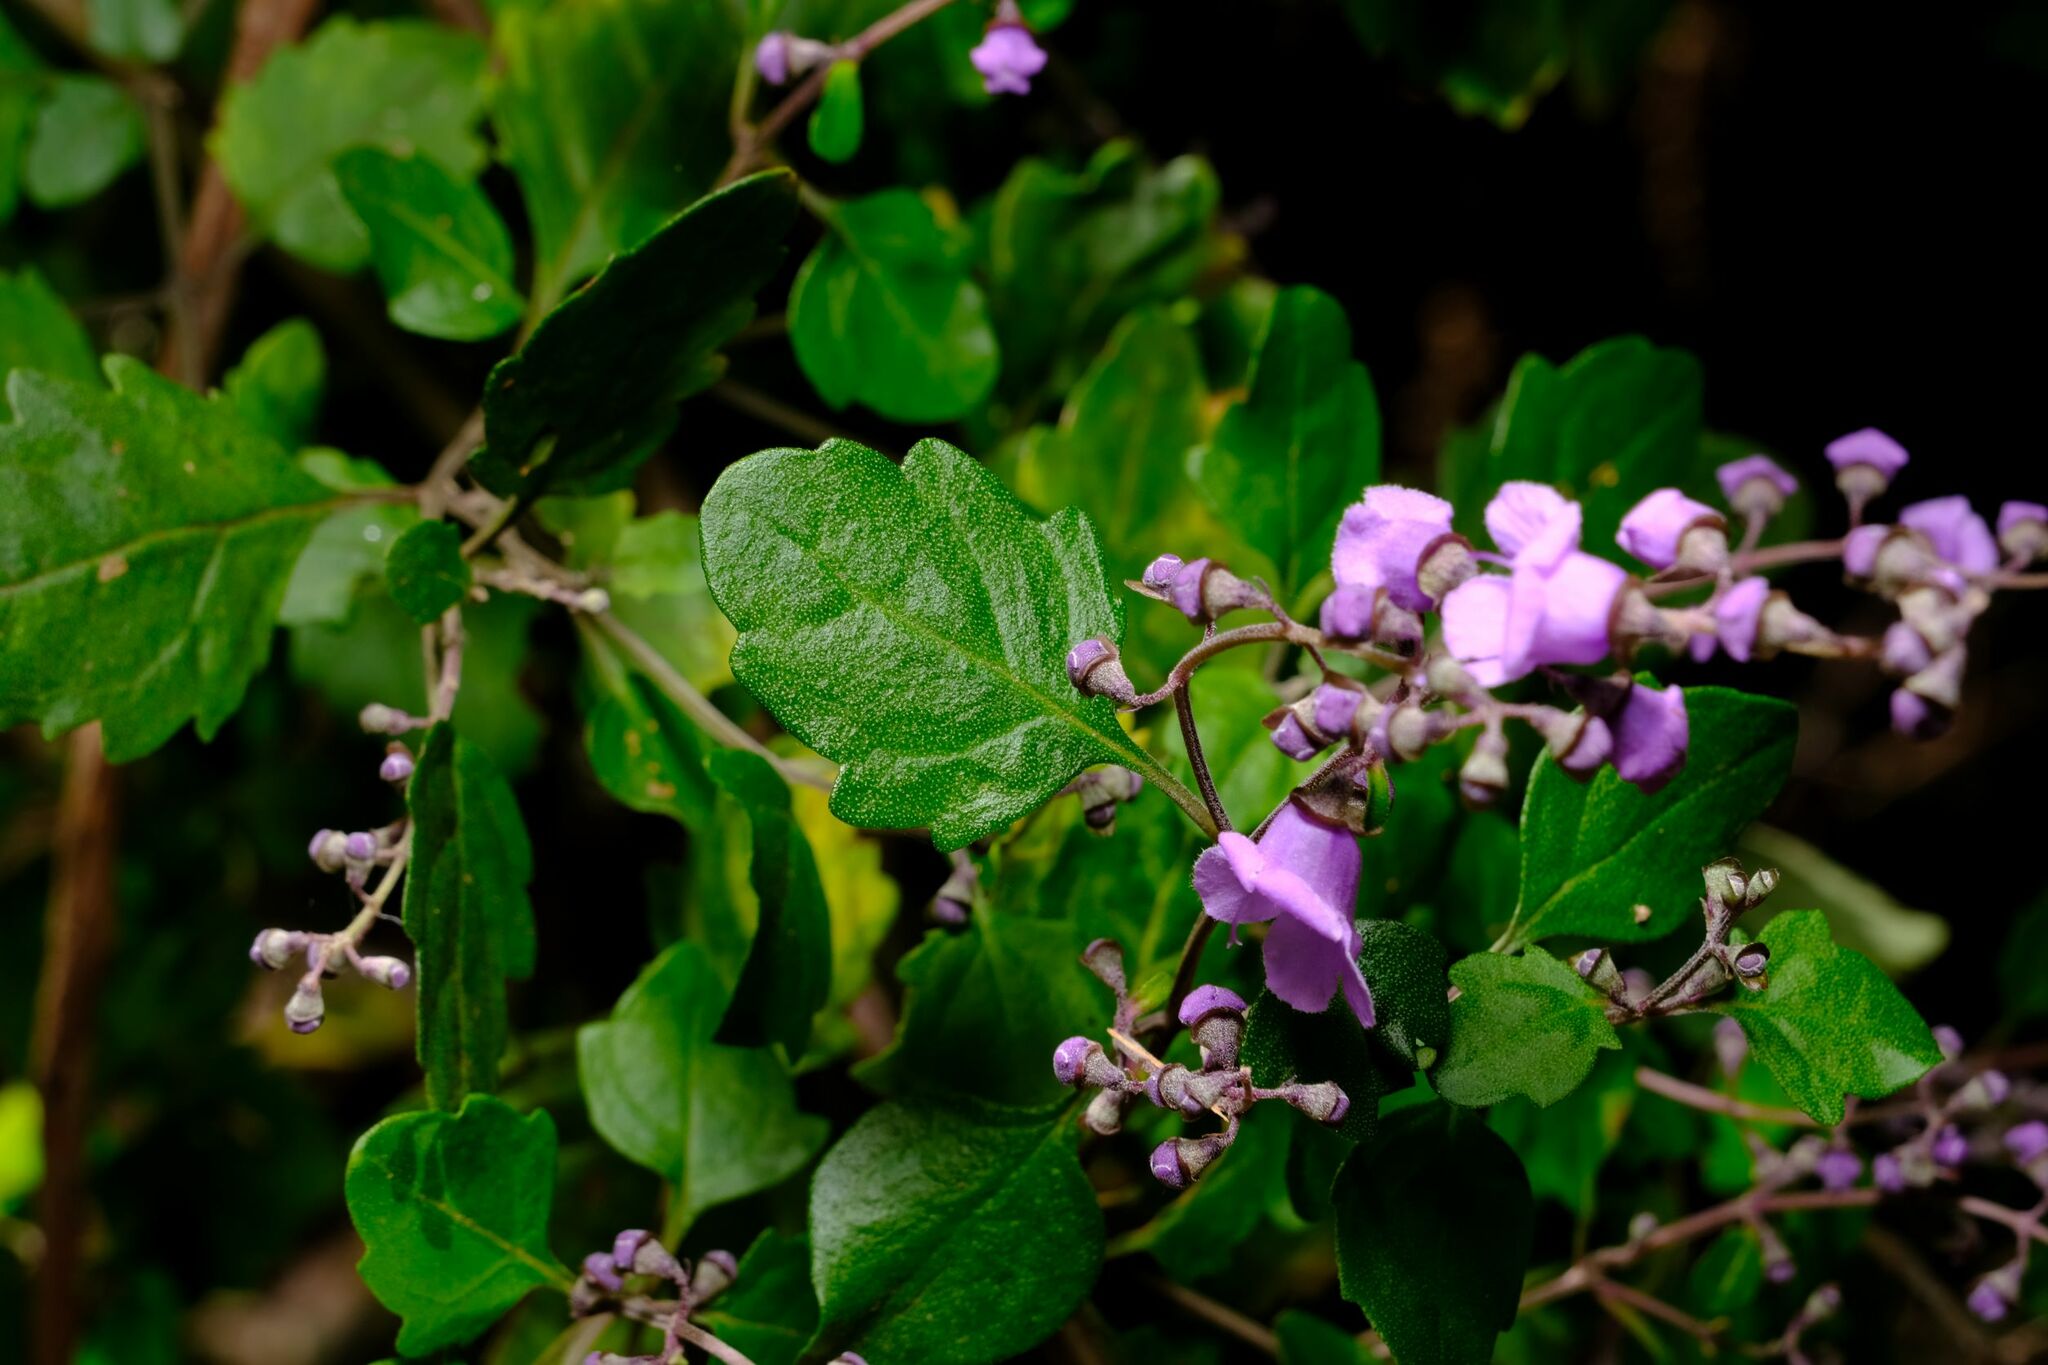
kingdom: Plantae
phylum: Tracheophyta
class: Magnoliopsida
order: Lamiales
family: Lamiaceae
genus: Prostanthera
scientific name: Prostanthera melissifolia
